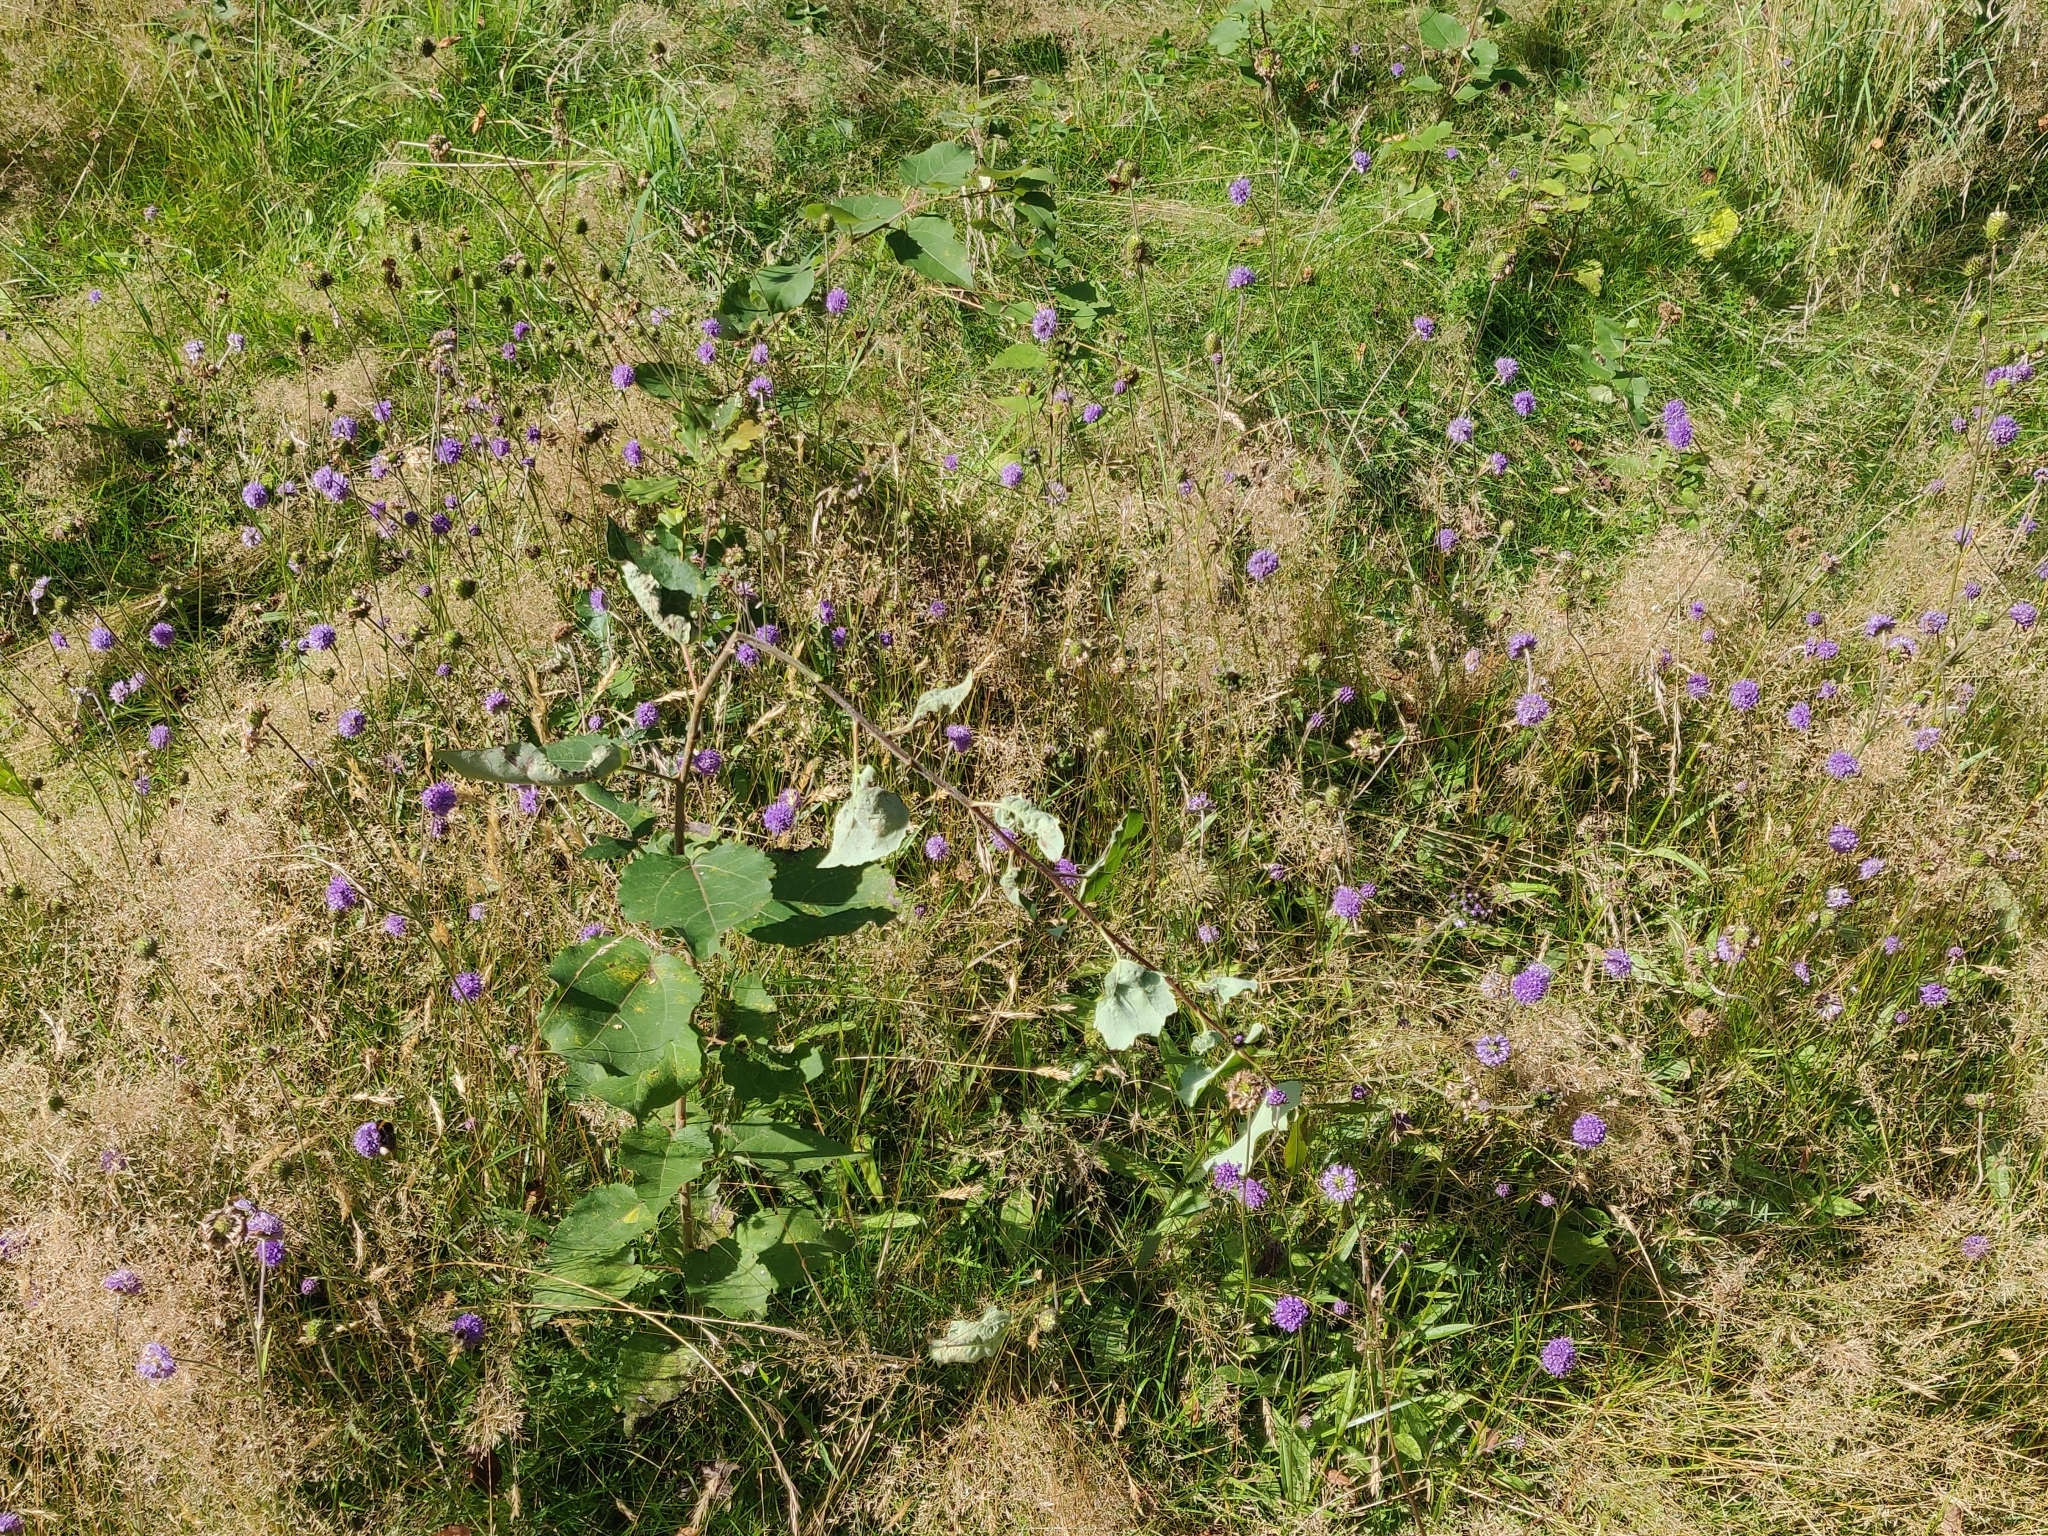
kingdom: Plantae
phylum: Tracheophyta
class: Magnoliopsida
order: Dipsacales
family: Caprifoliaceae
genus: Succisa
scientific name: Succisa pratensis
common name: Devil's-bit
